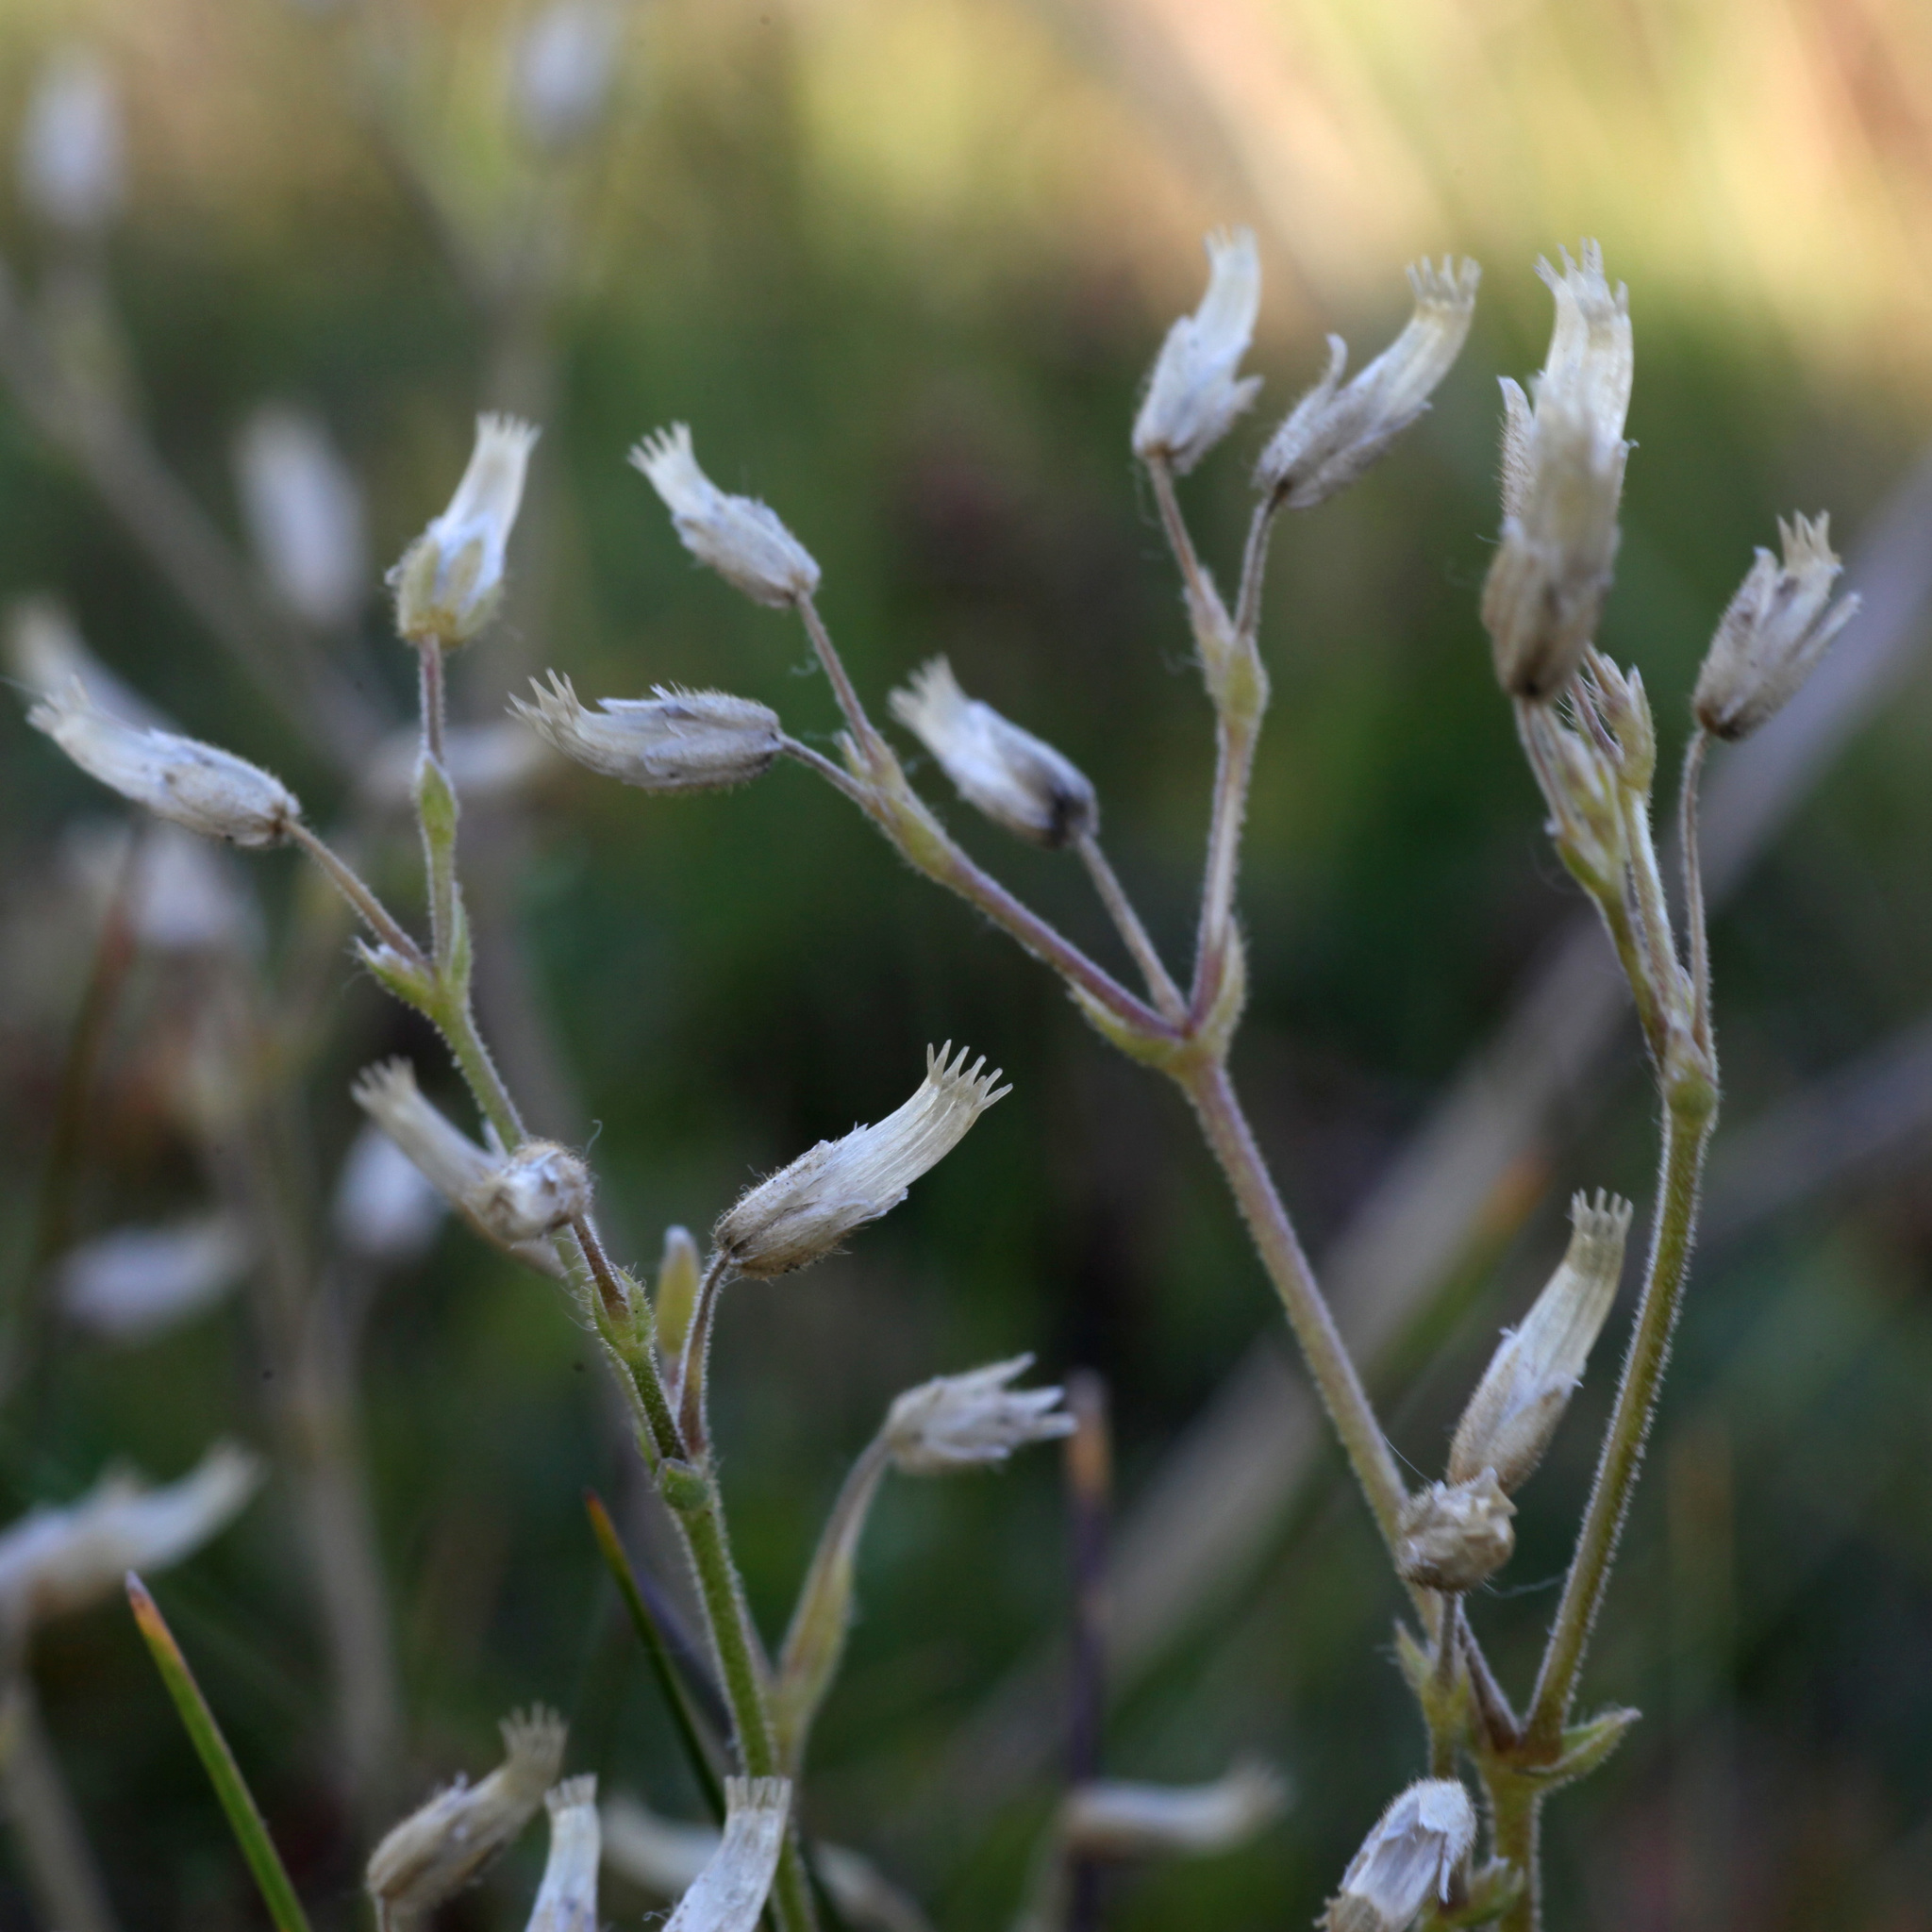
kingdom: Plantae
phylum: Tracheophyta
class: Magnoliopsida
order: Caryophyllales
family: Caryophyllaceae
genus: Cerastium
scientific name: Cerastium holosteoides
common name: Big chickweed
